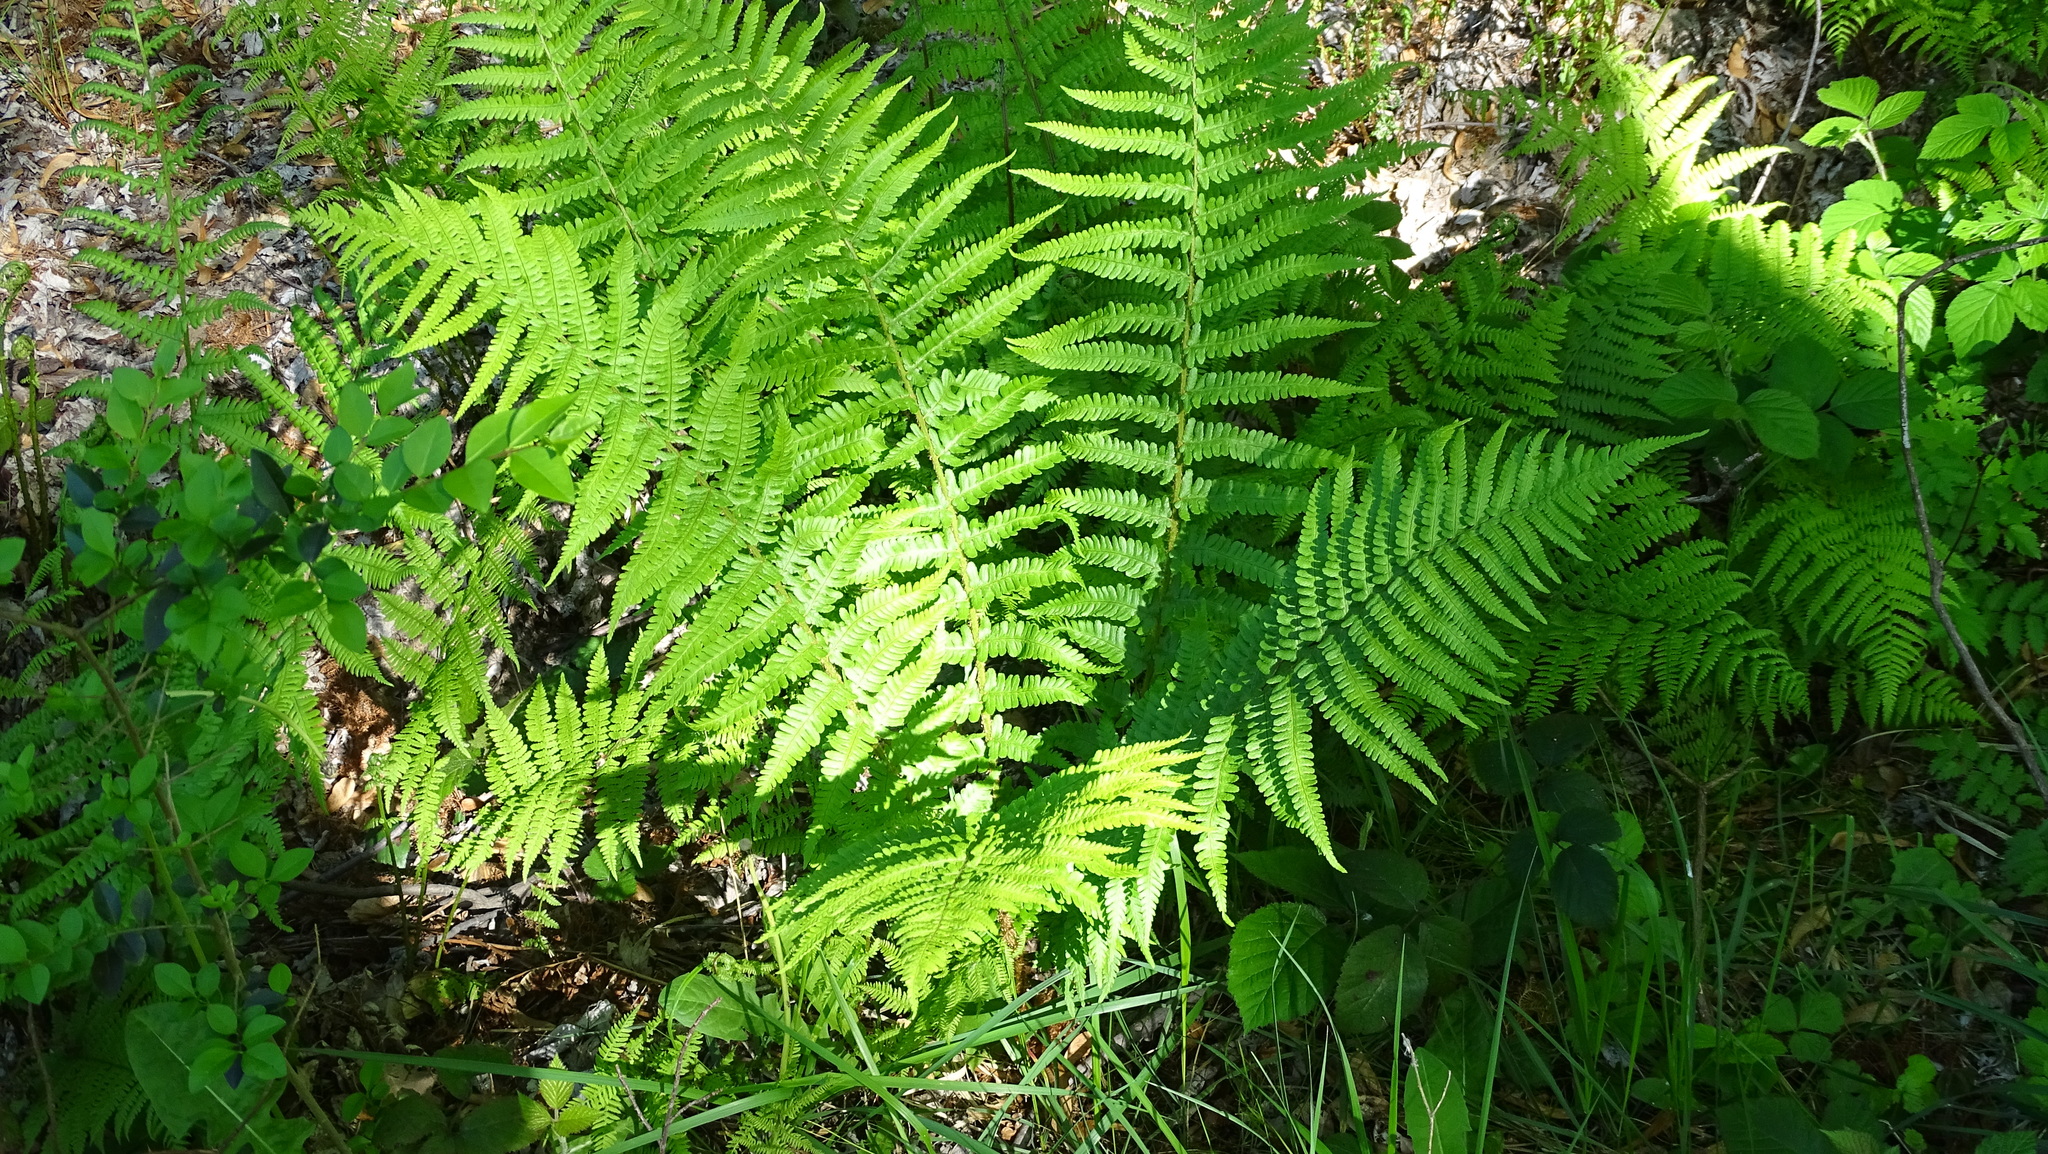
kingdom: Plantae
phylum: Tracheophyta
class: Polypodiopsida
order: Polypodiales
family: Dryopteridaceae
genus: Dryopteris
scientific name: Dryopteris filix-mas
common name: Male fern
